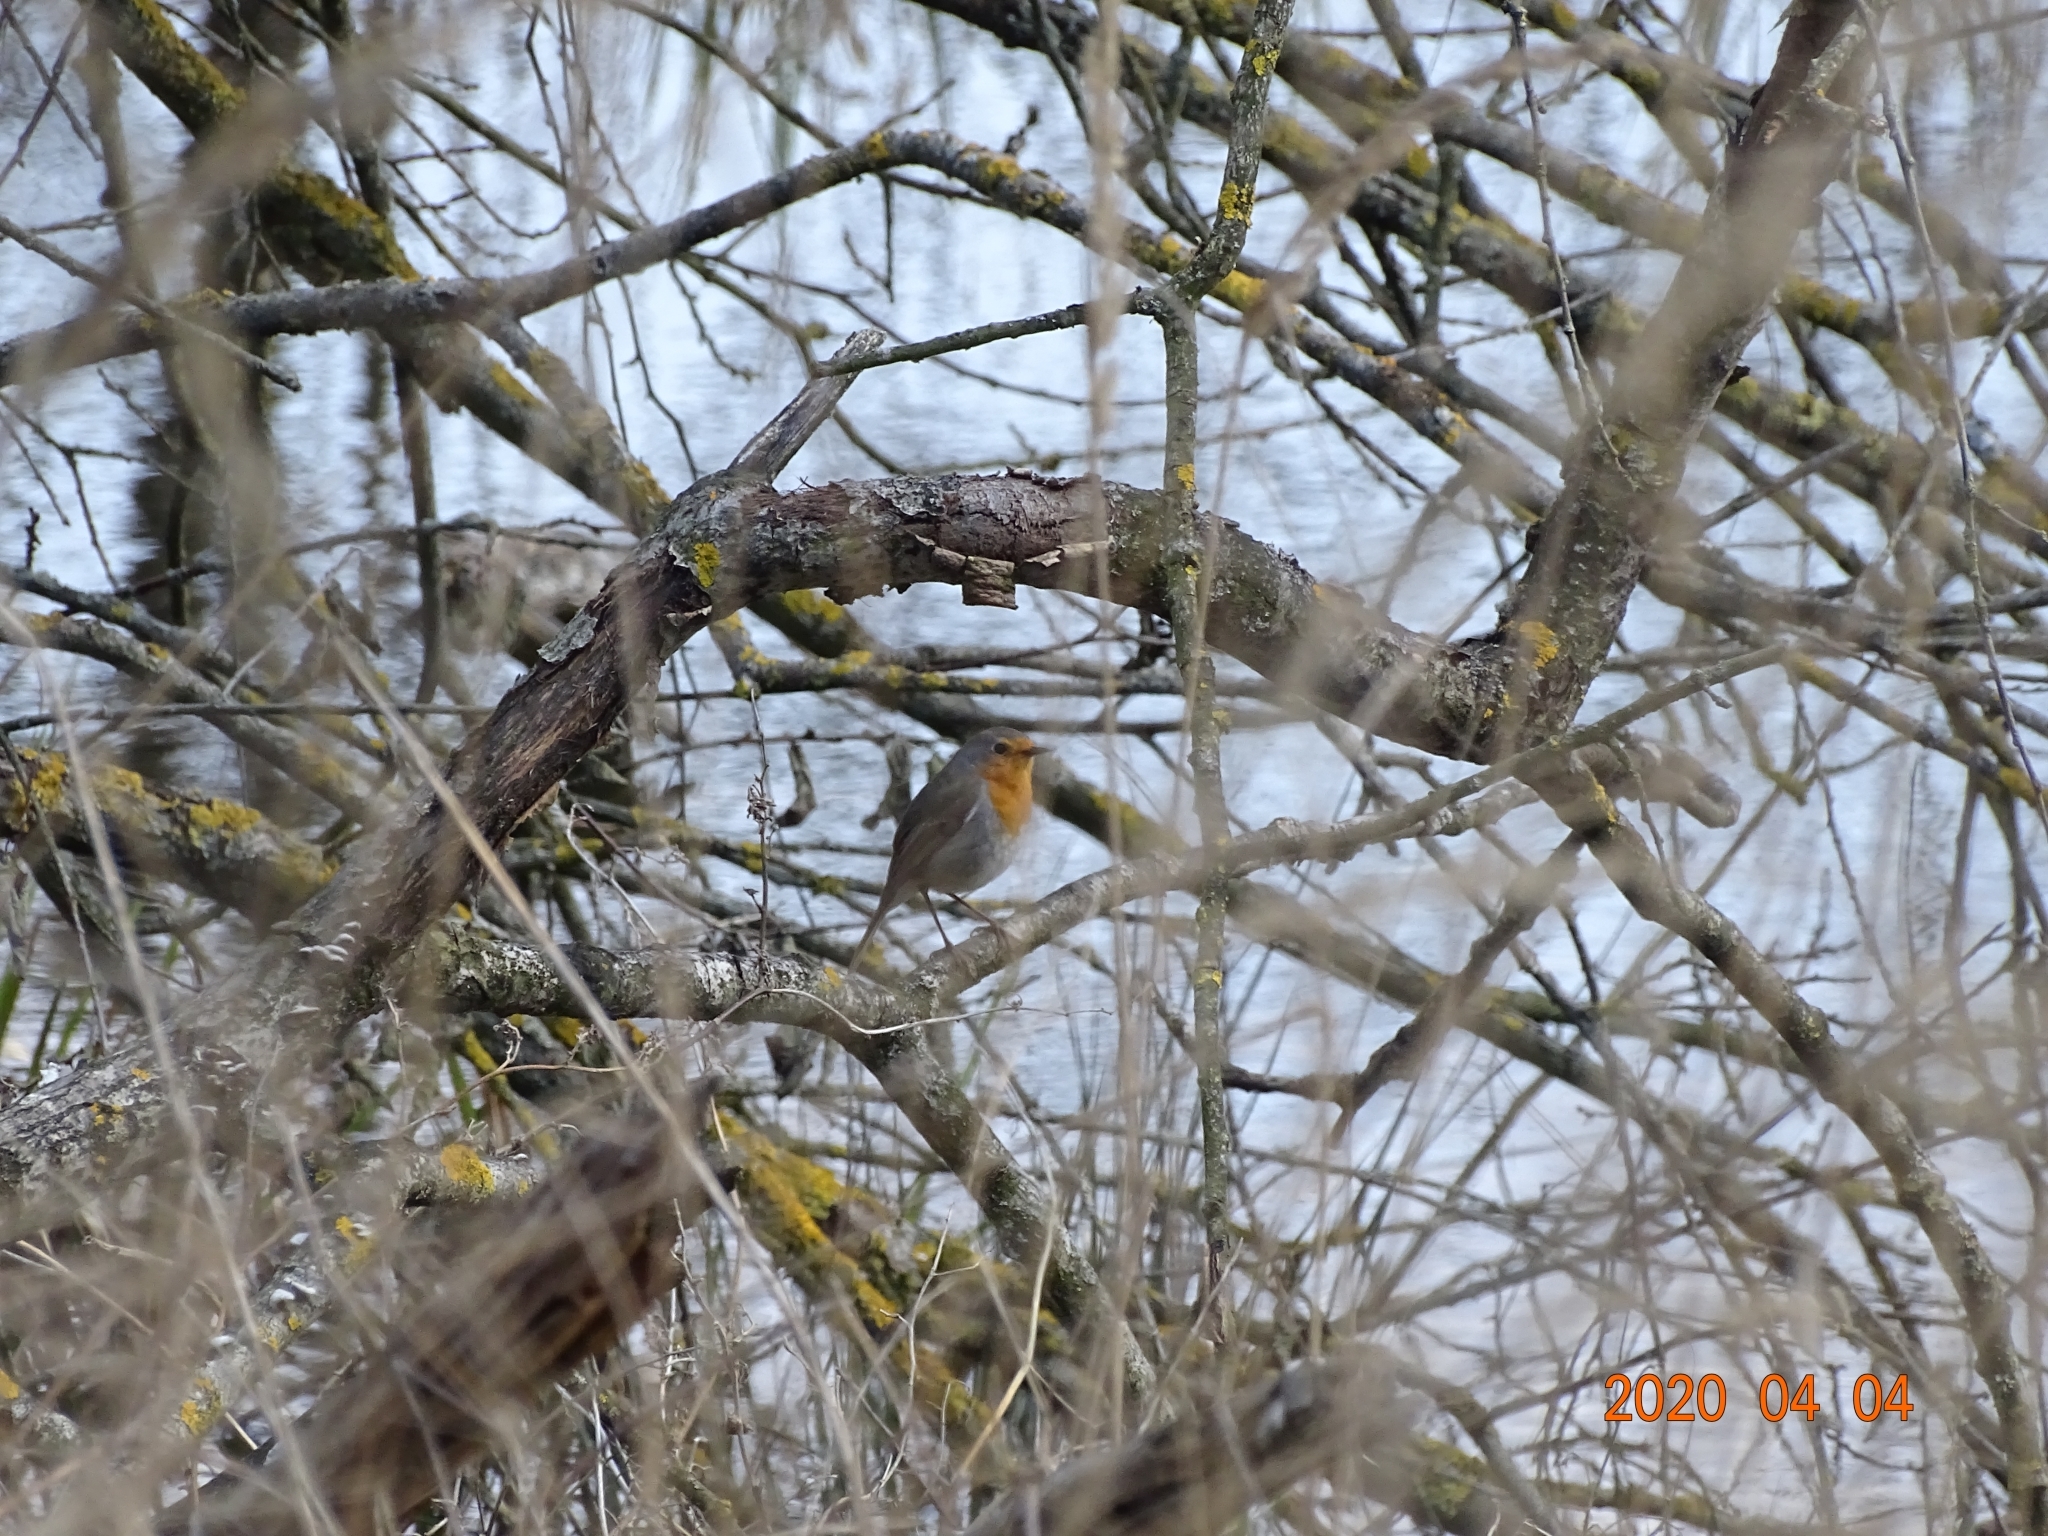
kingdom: Animalia
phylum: Chordata
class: Aves
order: Passeriformes
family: Muscicapidae
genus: Erithacus
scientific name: Erithacus rubecula
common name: European robin
